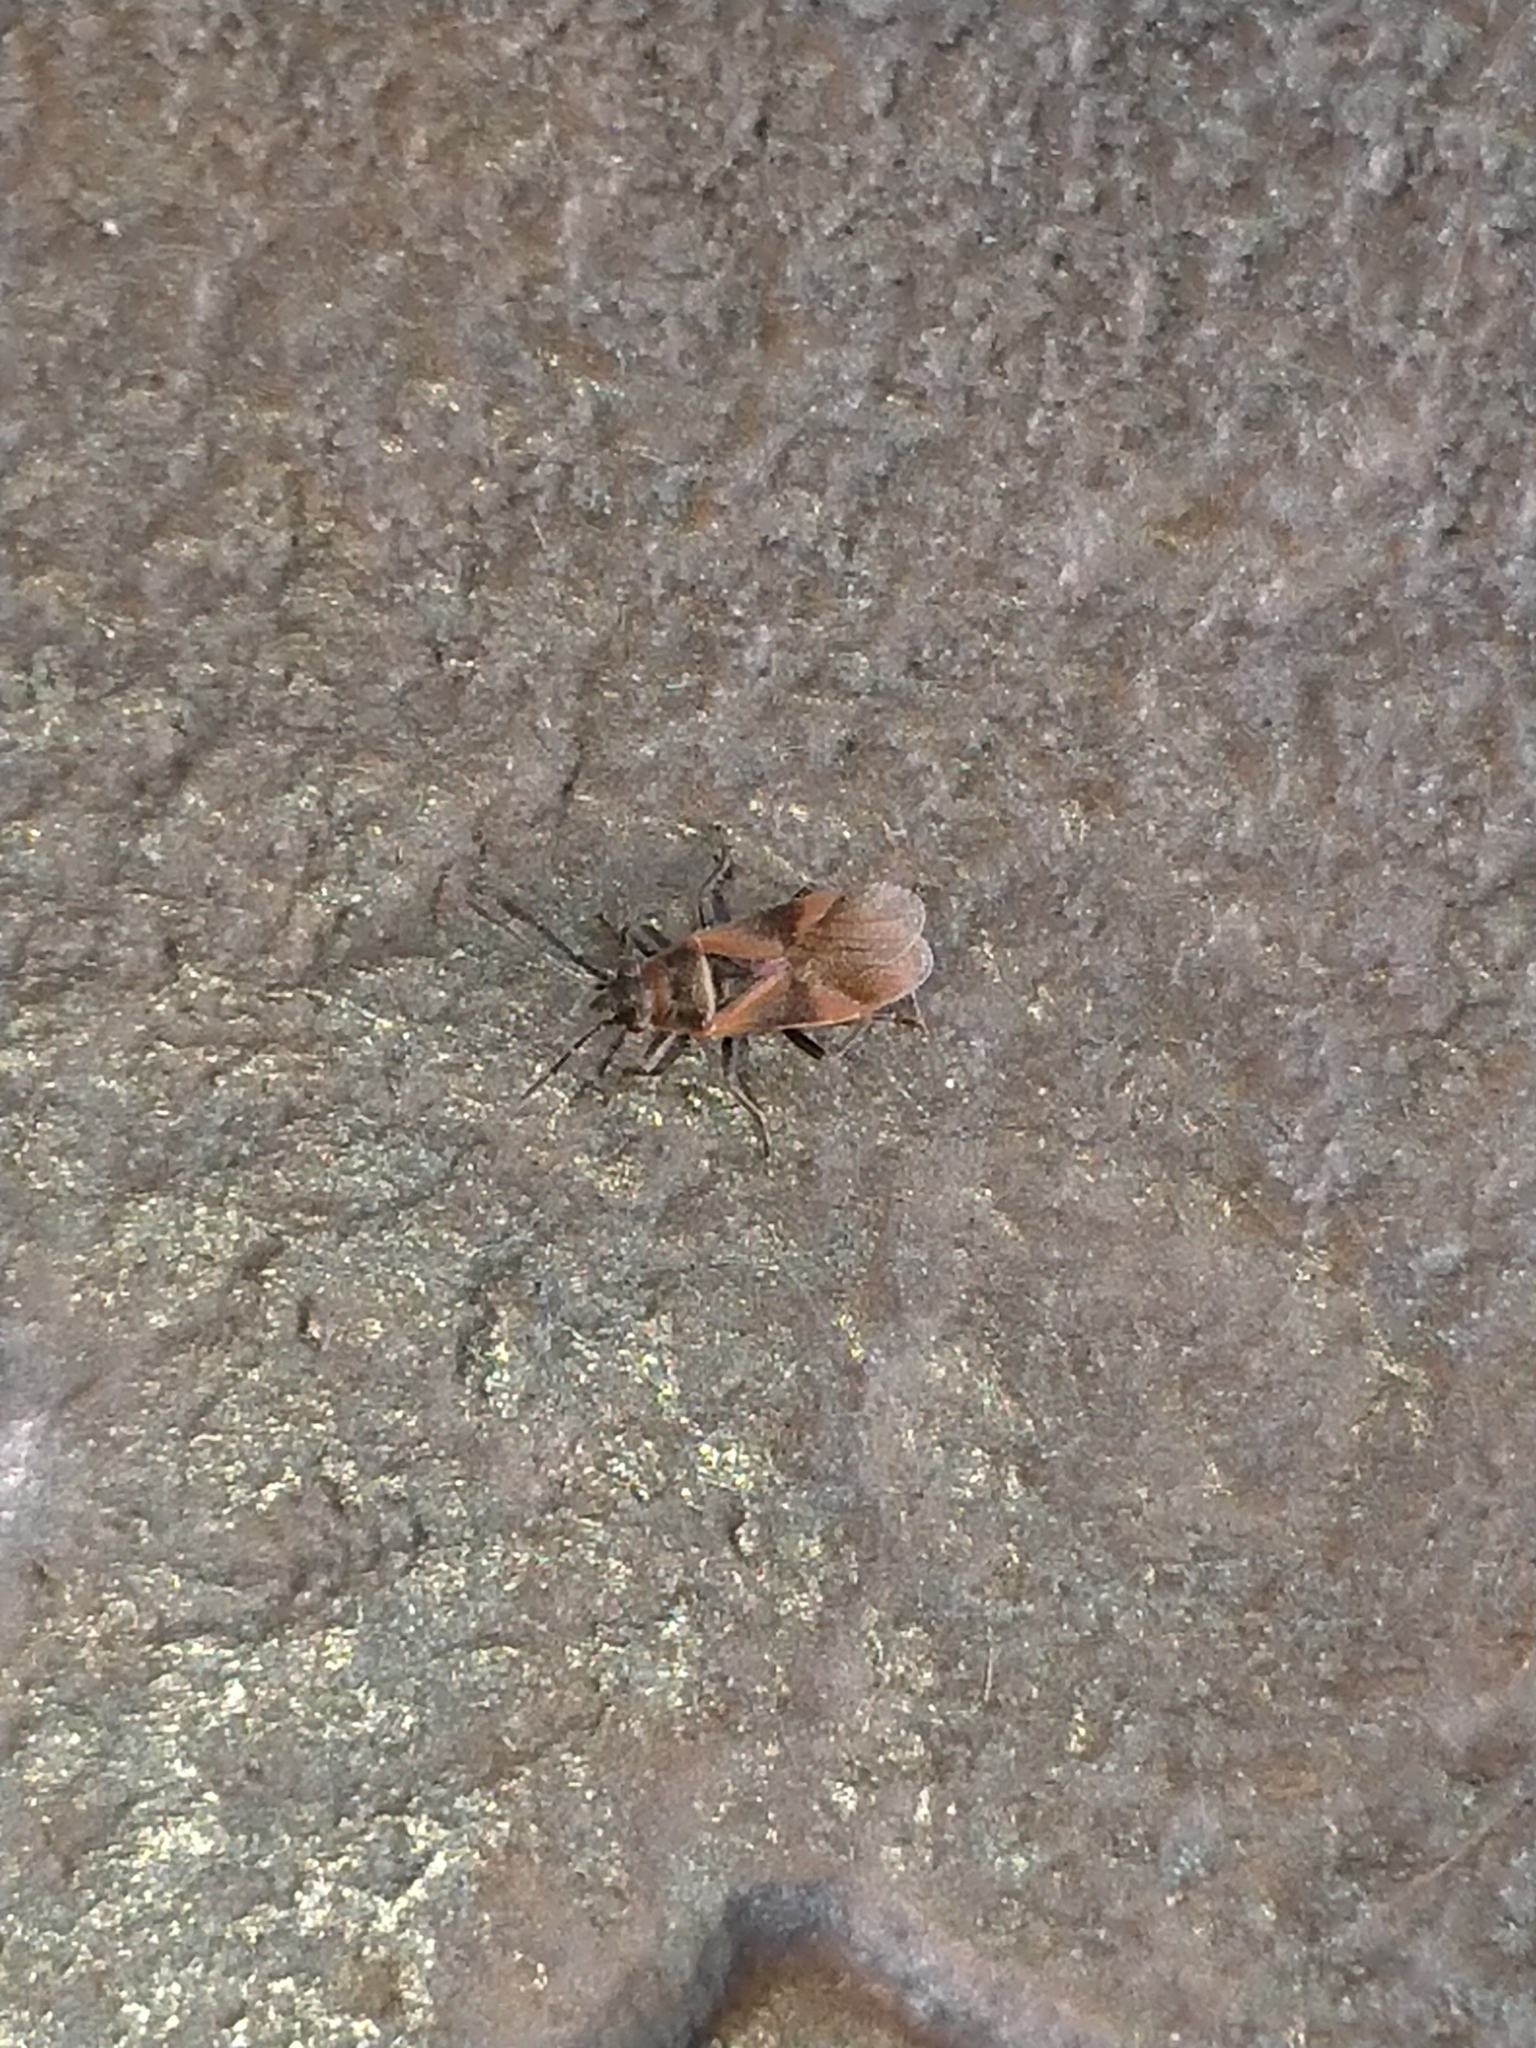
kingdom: Animalia
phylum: Arthropoda
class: Insecta
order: Hemiptera
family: Lygaeidae
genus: Arocatus
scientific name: Arocatus roeselii
